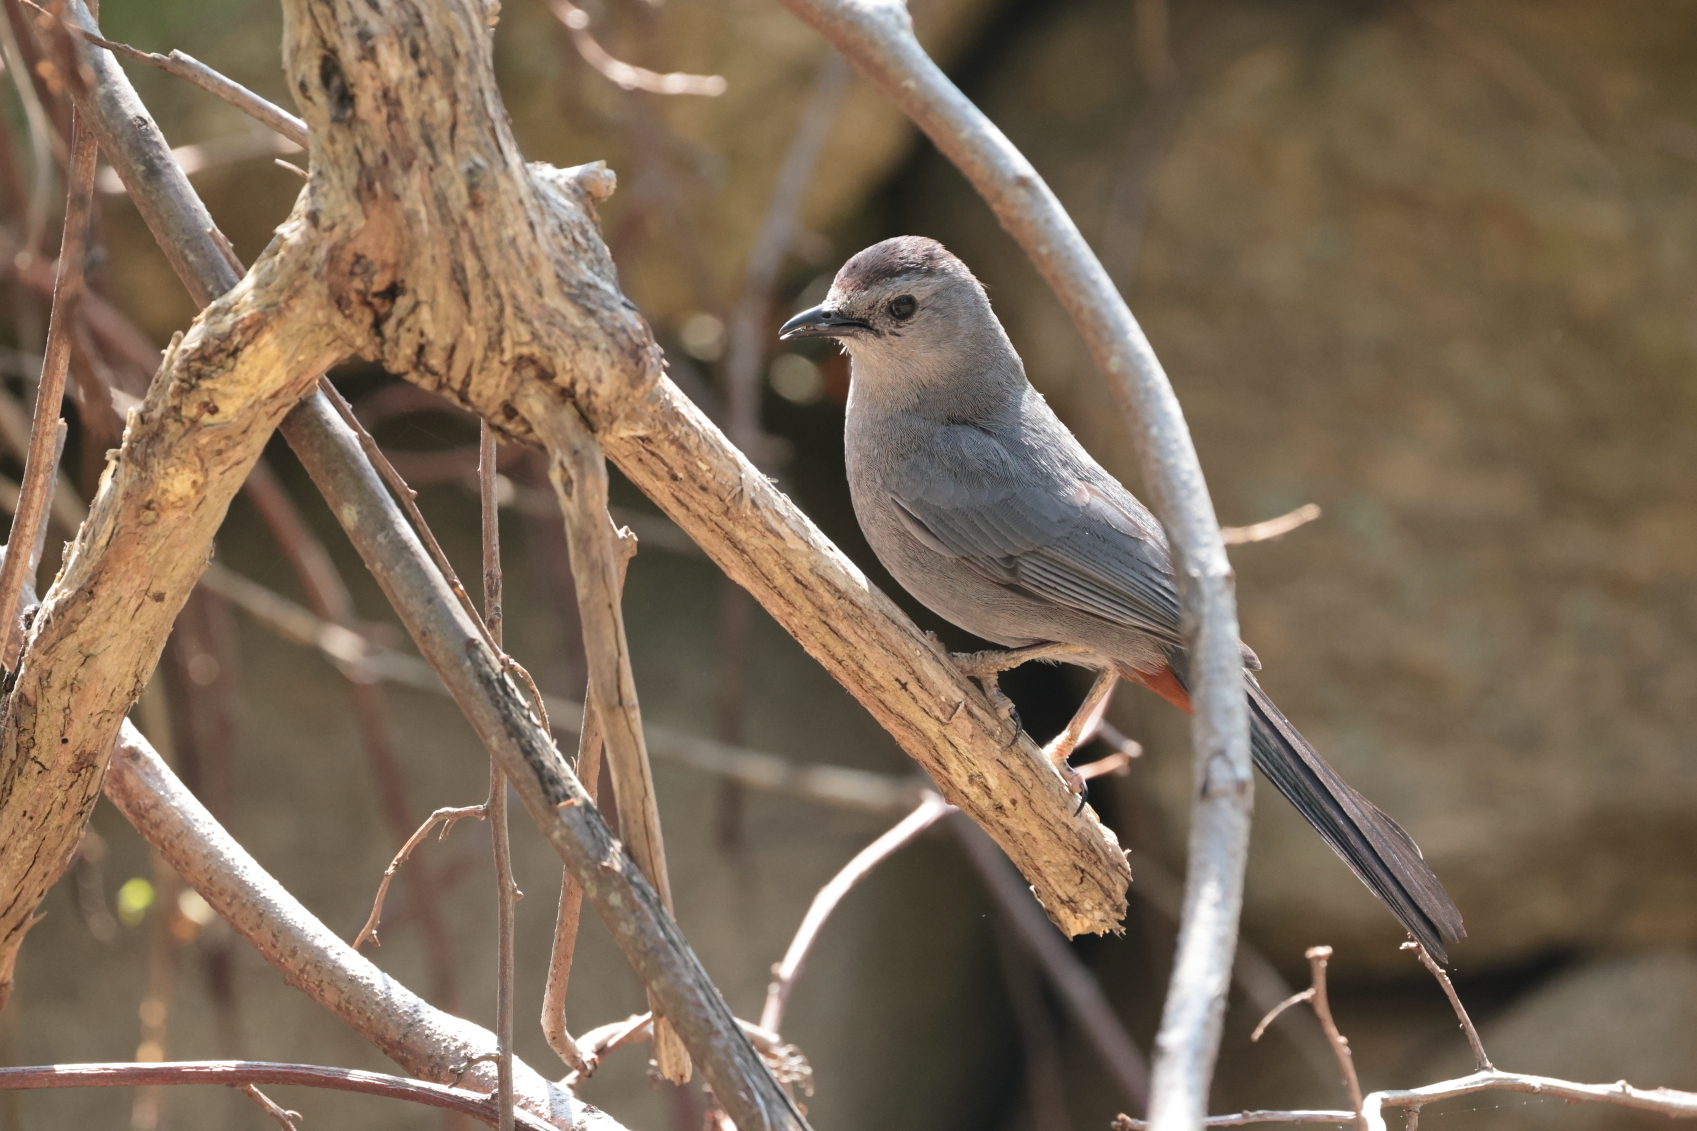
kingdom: Animalia
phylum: Chordata
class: Aves
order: Passeriformes
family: Mimidae
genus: Dumetella
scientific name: Dumetella carolinensis
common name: Gray catbird
